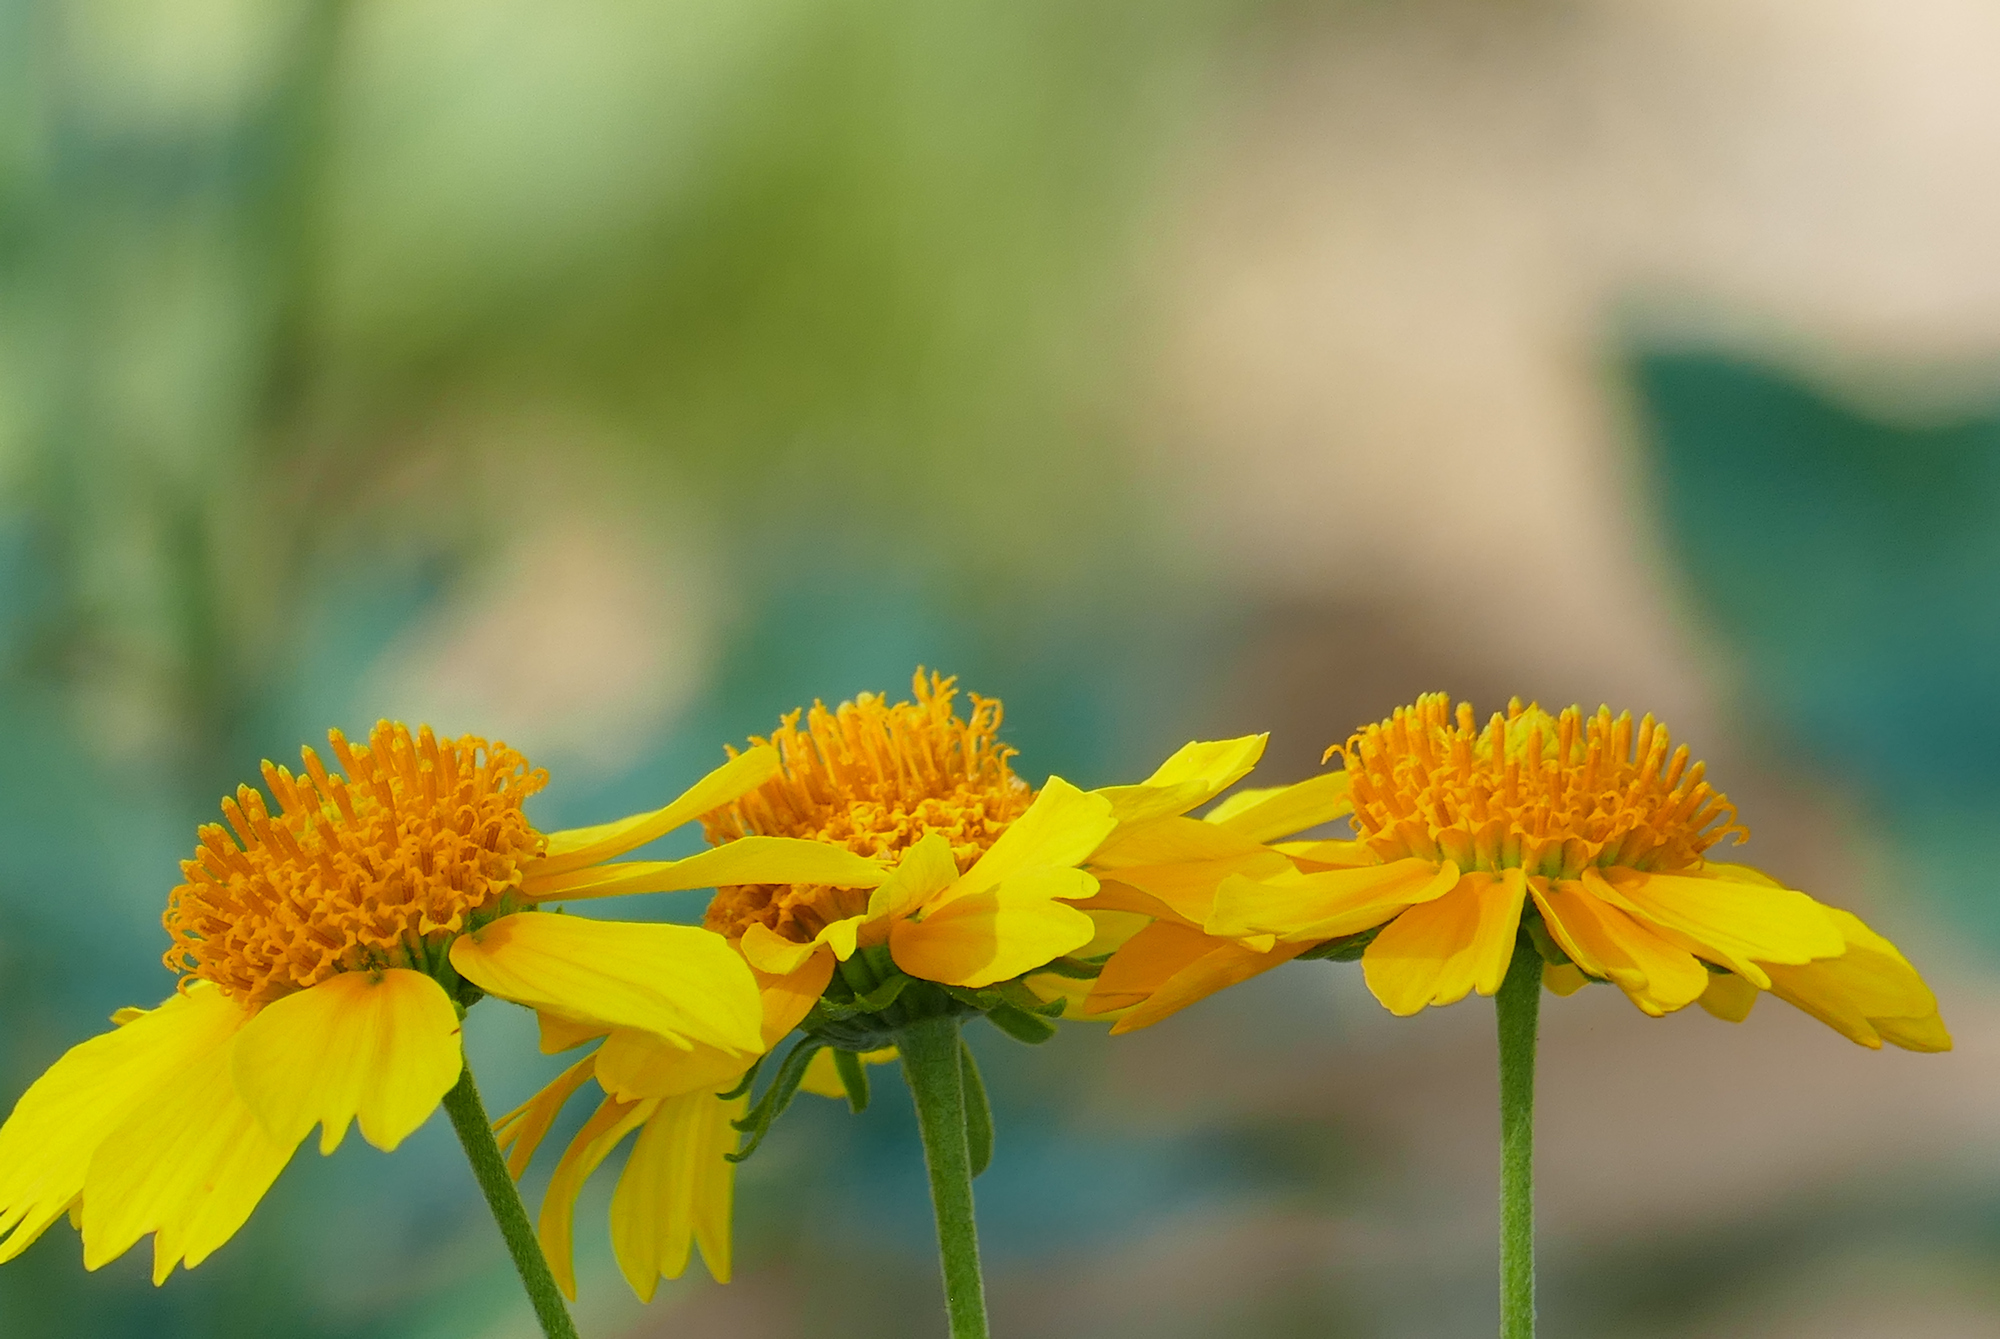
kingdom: Plantae
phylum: Tracheophyta
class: Magnoliopsida
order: Asterales
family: Asteraceae
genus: Verbesina
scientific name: Verbesina encelioides
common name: Golden crownbeard
